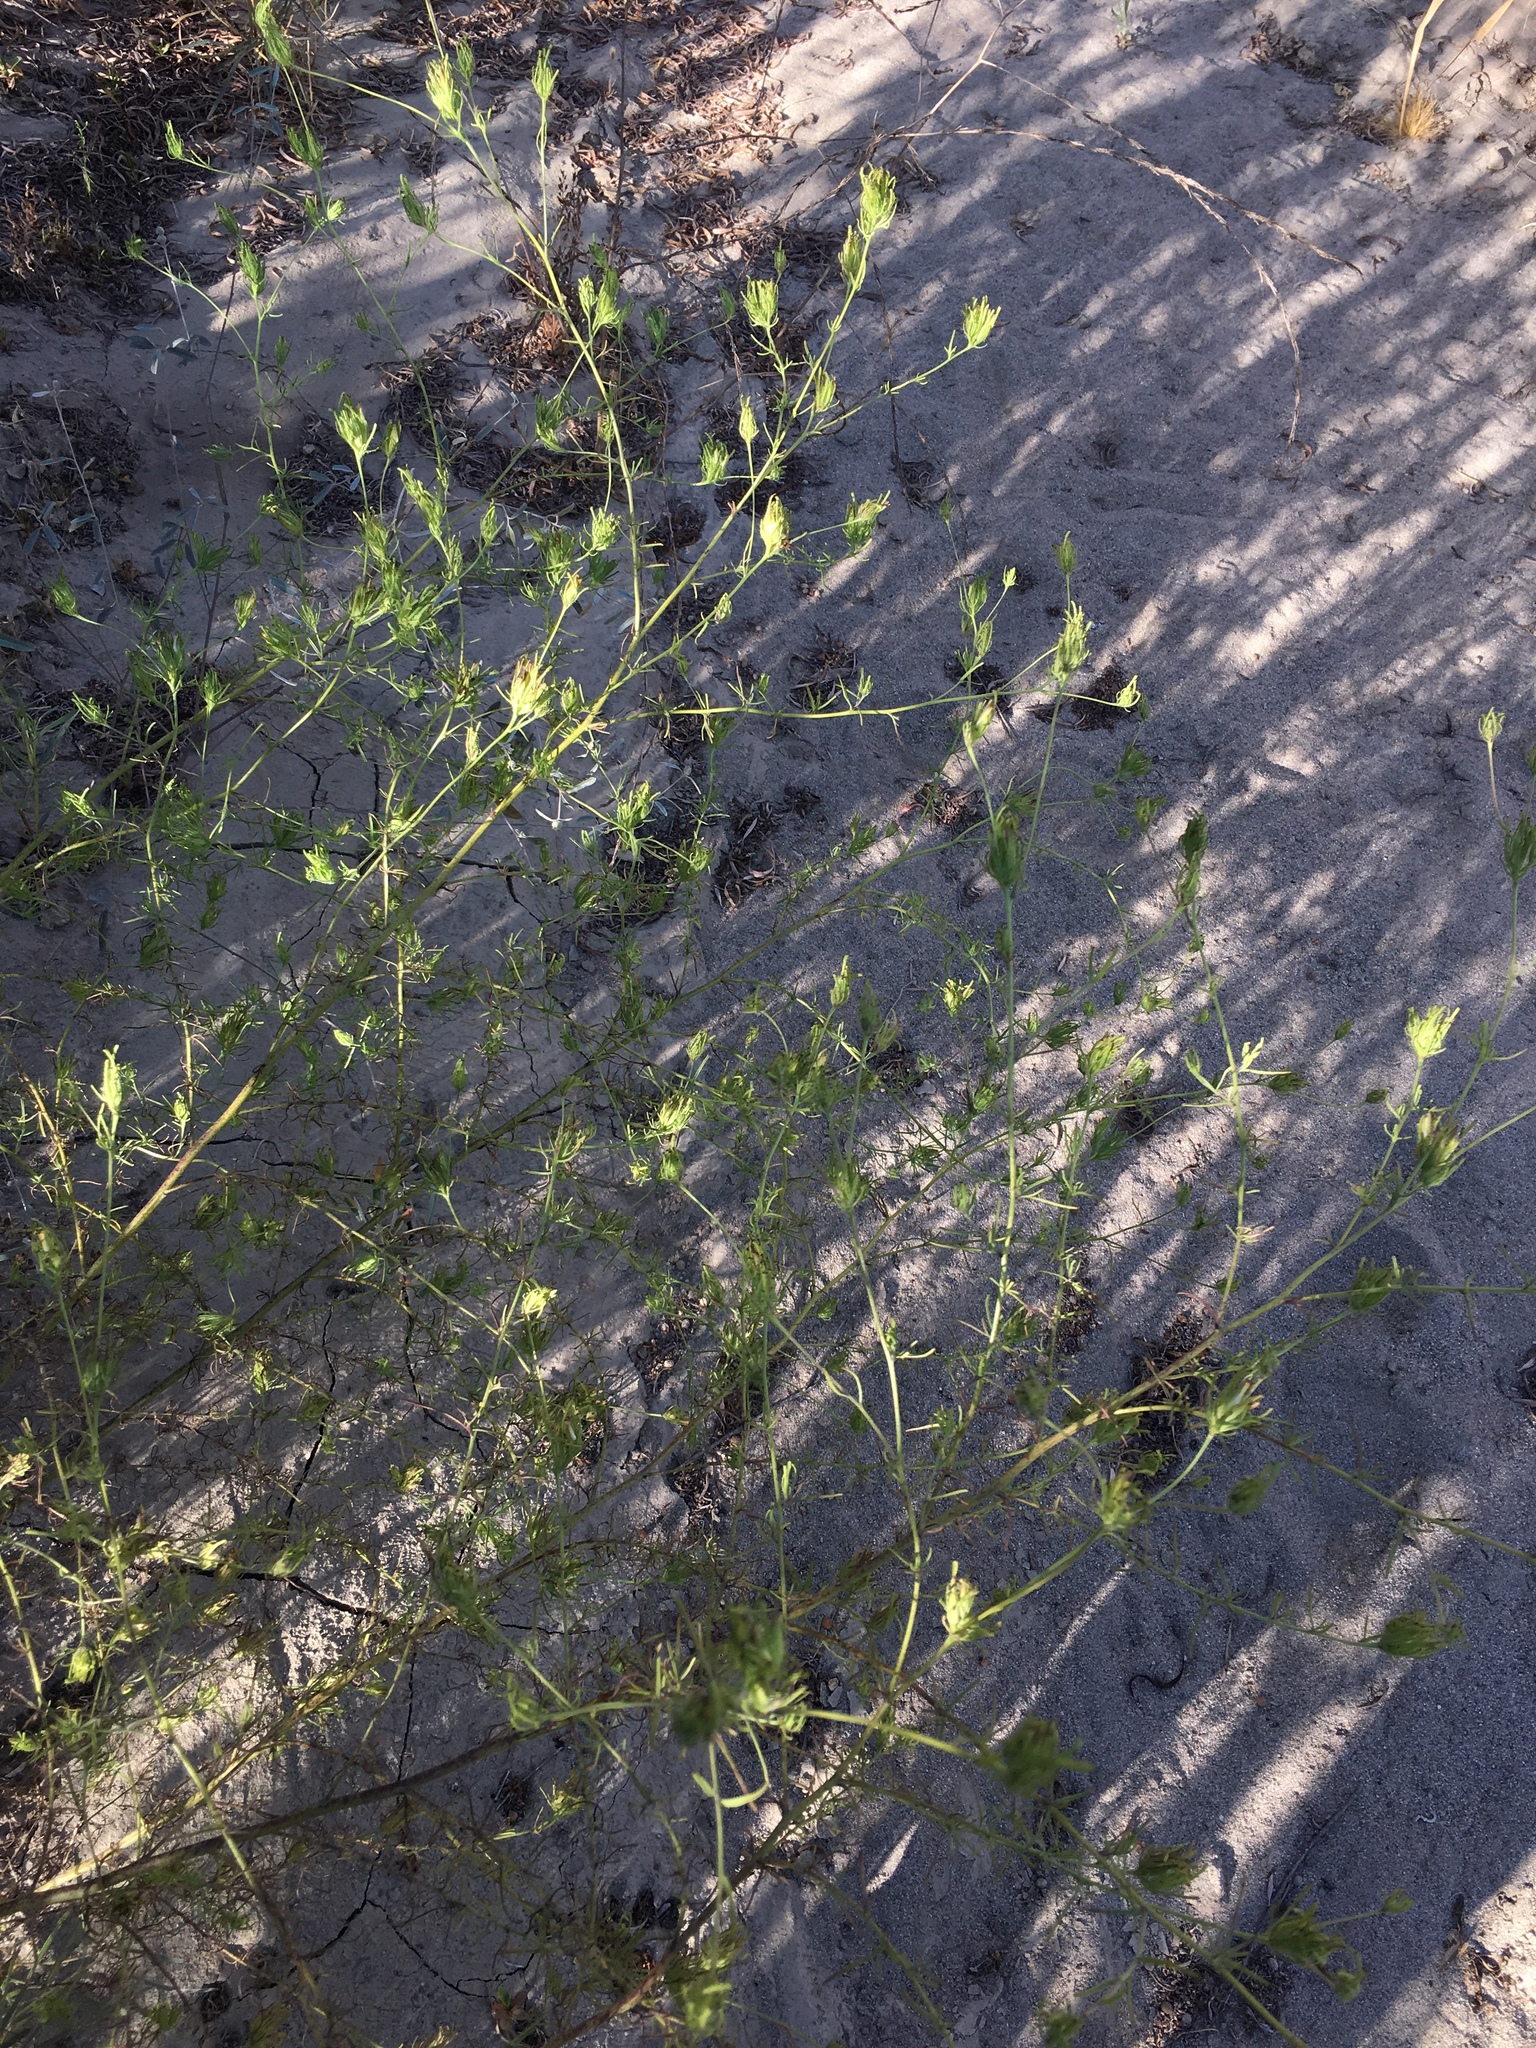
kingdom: Plantae
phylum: Tracheophyta
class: Magnoliopsida
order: Lamiales
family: Orobanchaceae
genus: Cordylanthus
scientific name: Cordylanthus rigidus
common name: Stiff-branch bird's-beak
